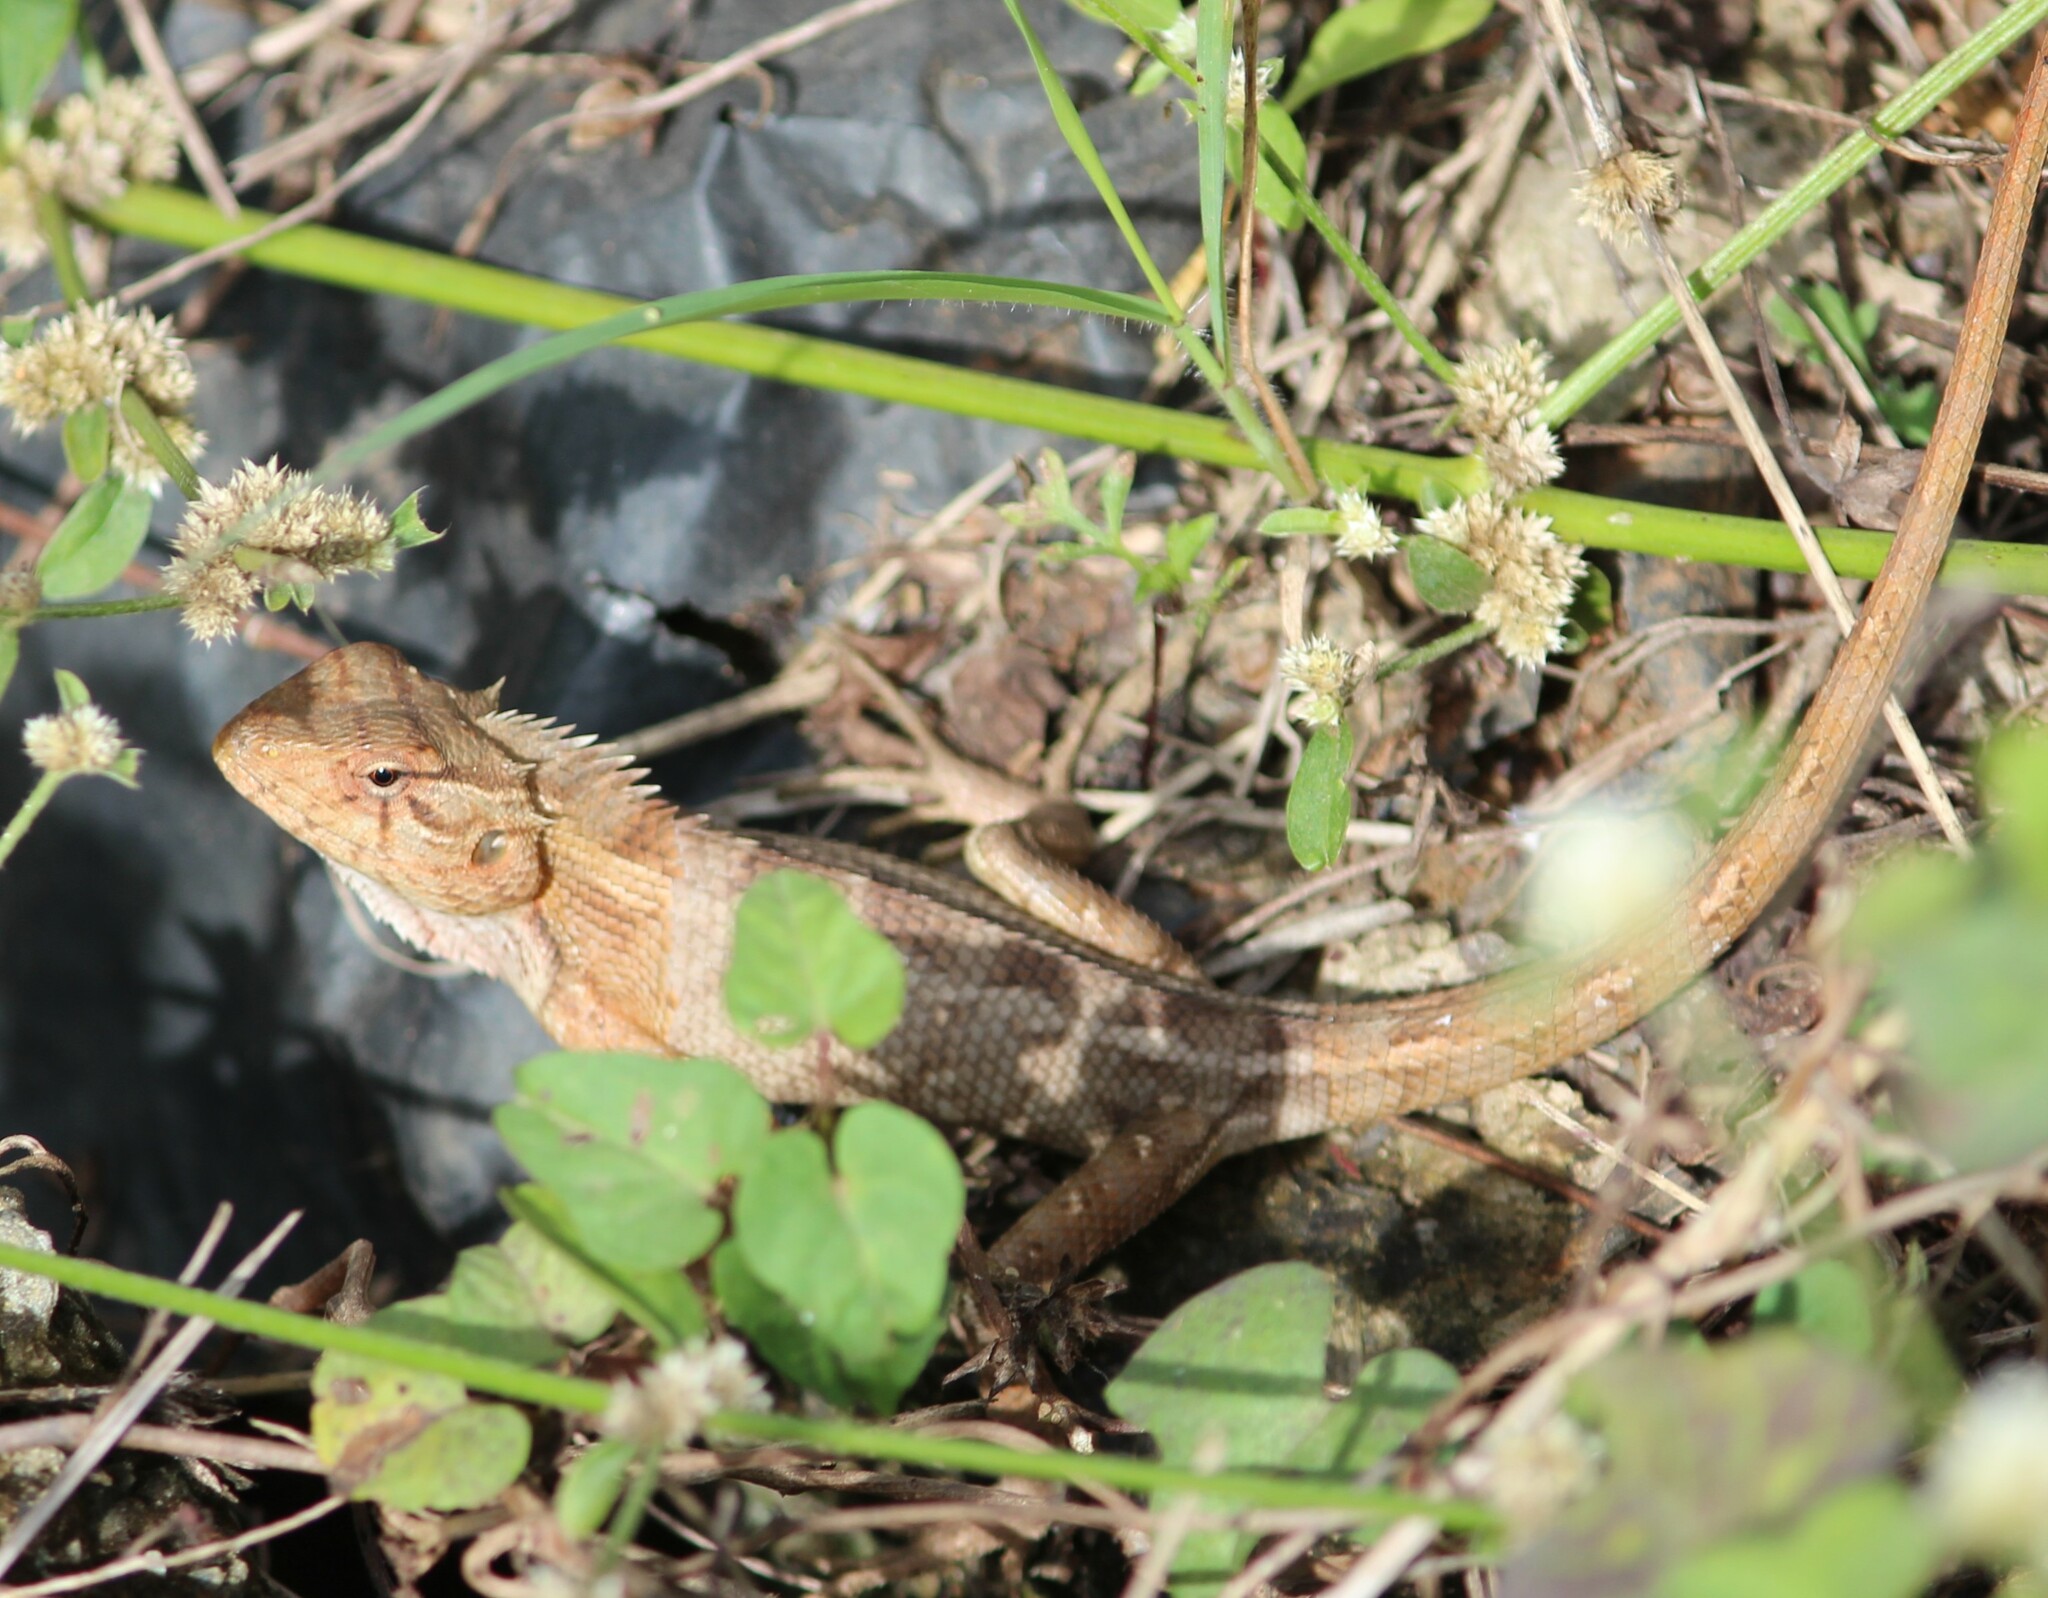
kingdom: Animalia
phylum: Chordata
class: Squamata
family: Agamidae
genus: Calotes
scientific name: Calotes versicolor
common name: Oriental garden lizard
